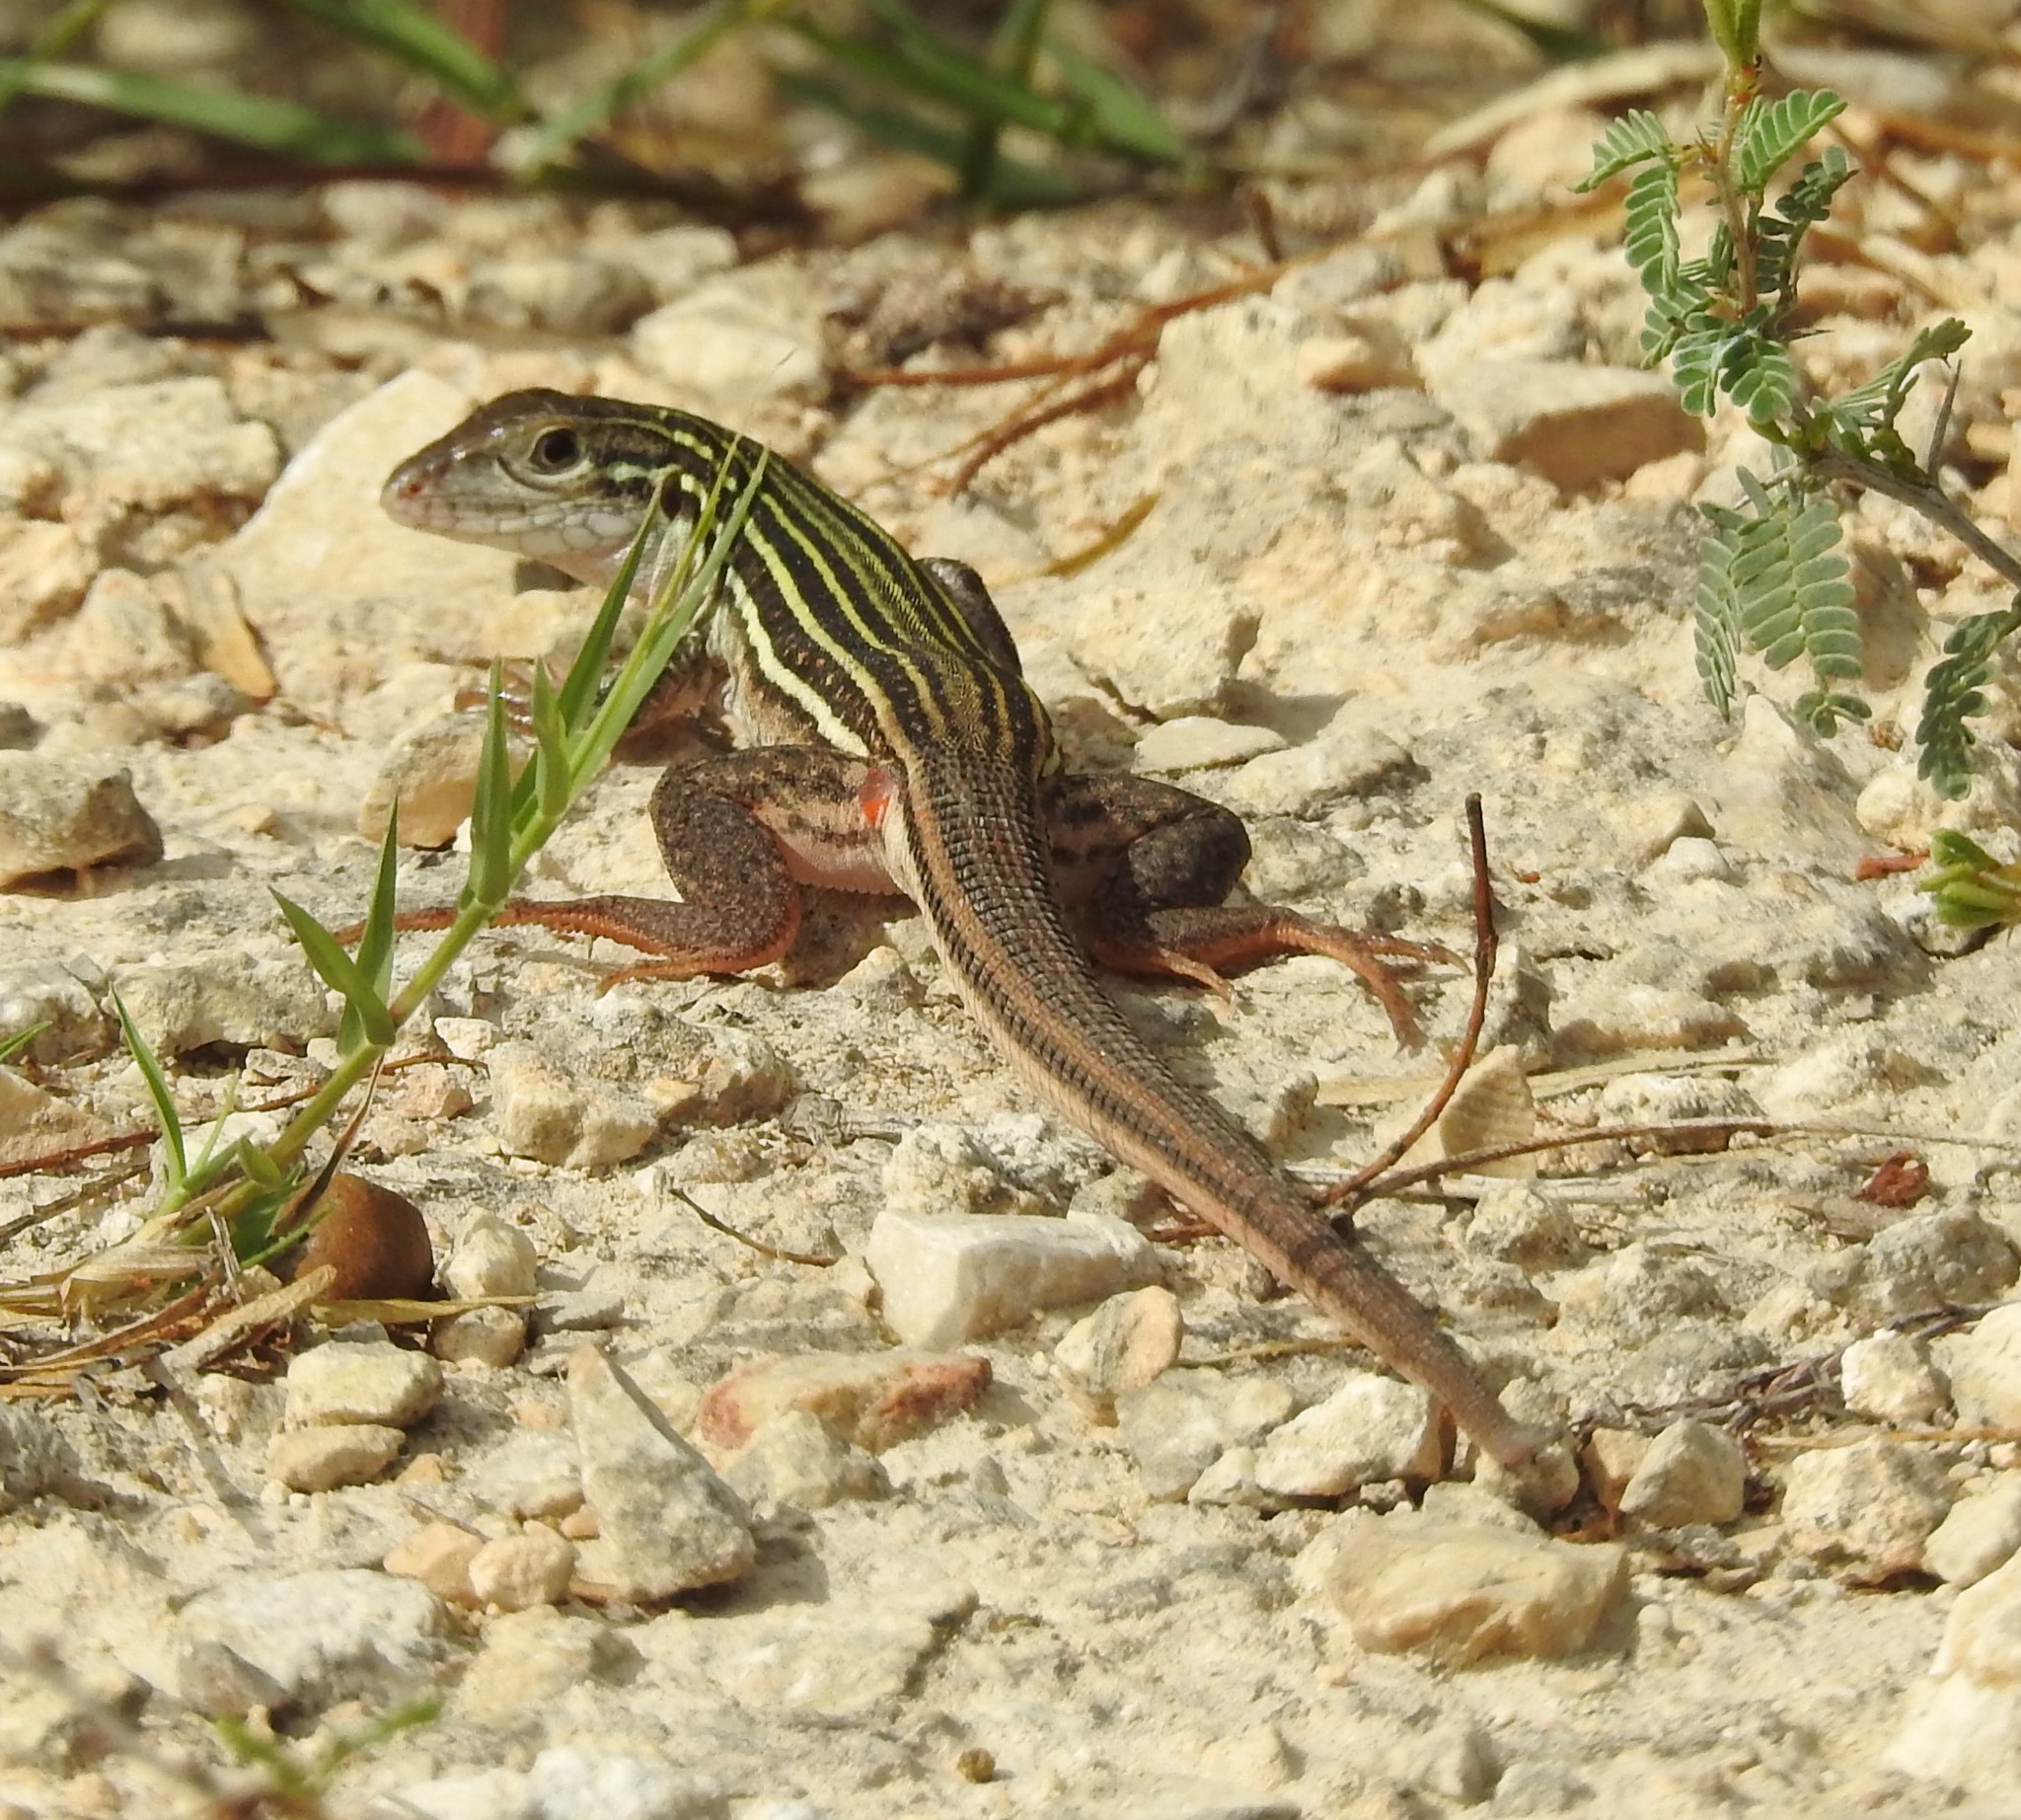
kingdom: Animalia
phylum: Chordata
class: Squamata
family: Teiidae
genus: Aspidoscelis
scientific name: Aspidoscelis gularis
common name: Eastern spotted whiptail
